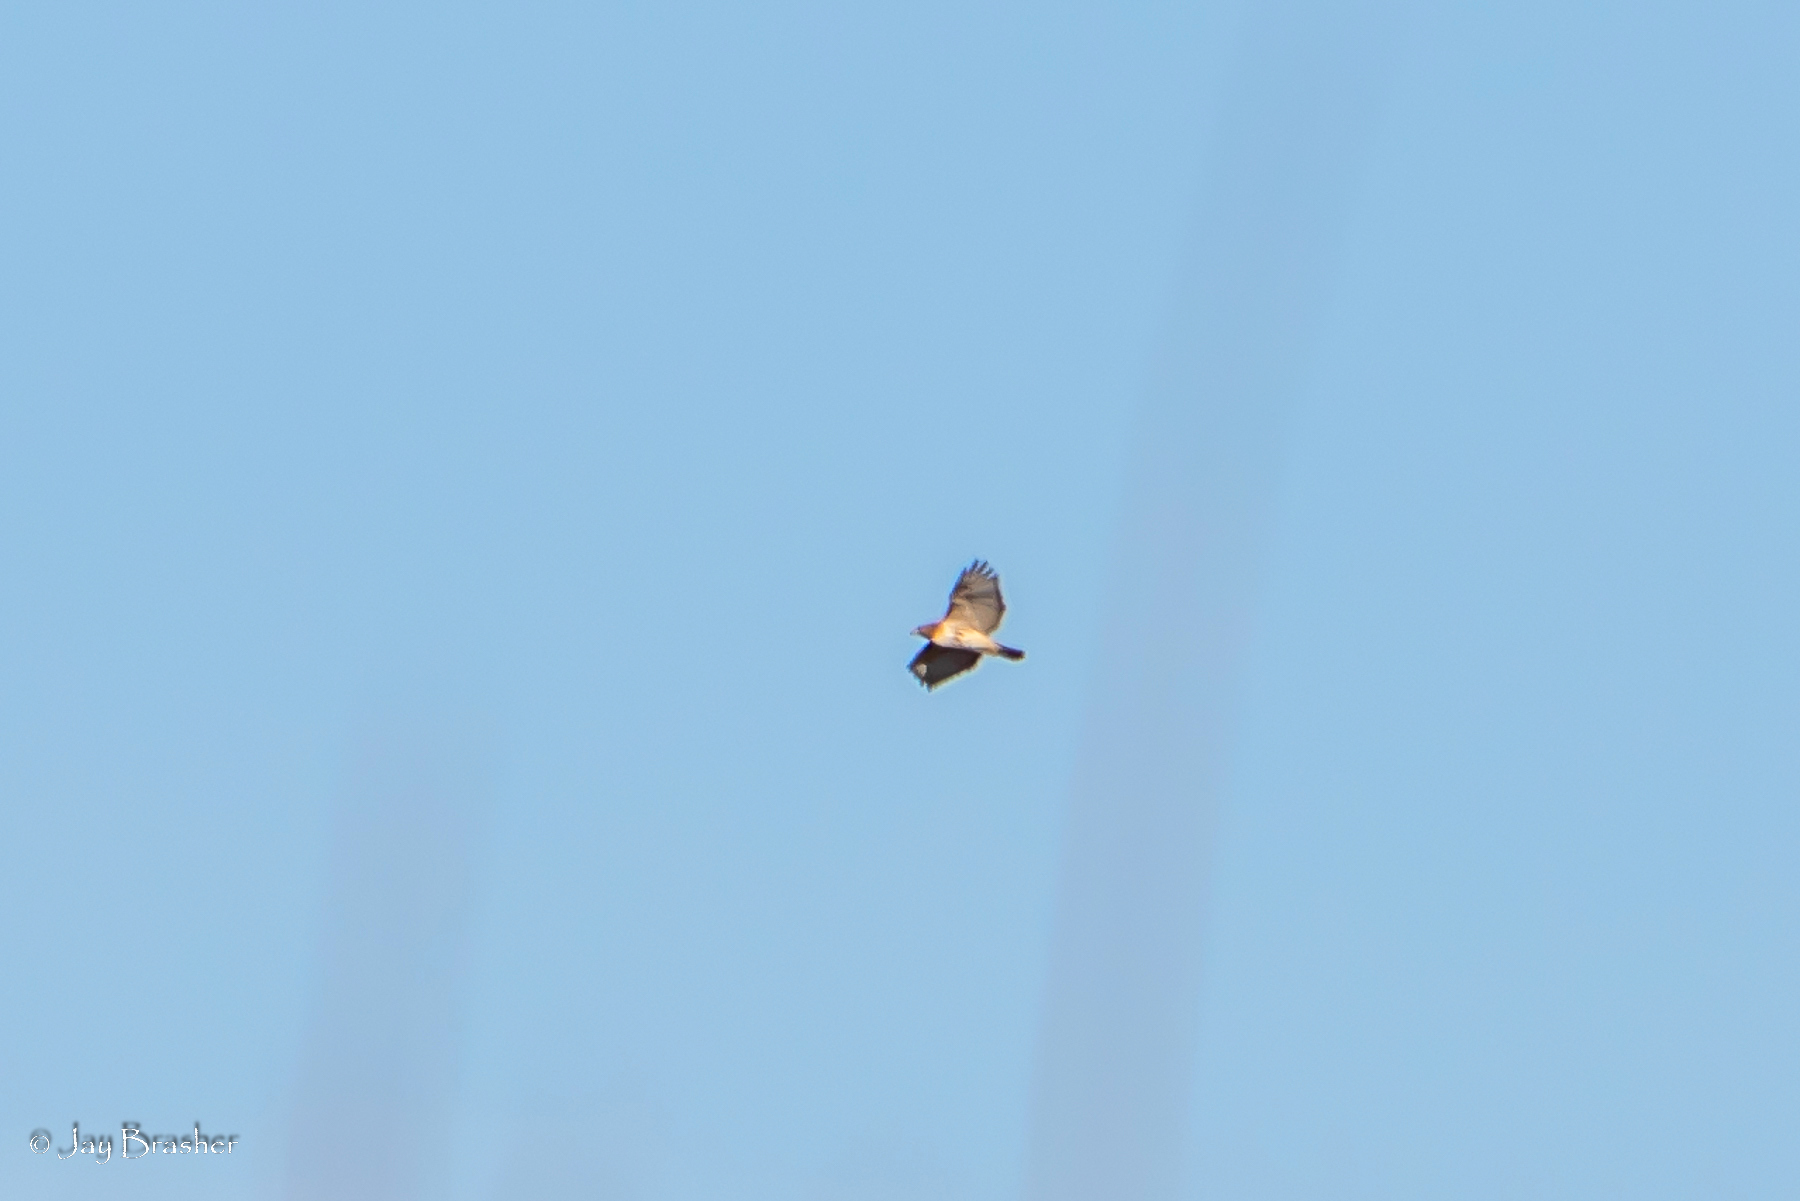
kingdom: Animalia
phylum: Chordata
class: Aves
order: Accipitriformes
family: Accipitridae
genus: Buteo
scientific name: Buteo jamaicensis
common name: Red-tailed hawk
